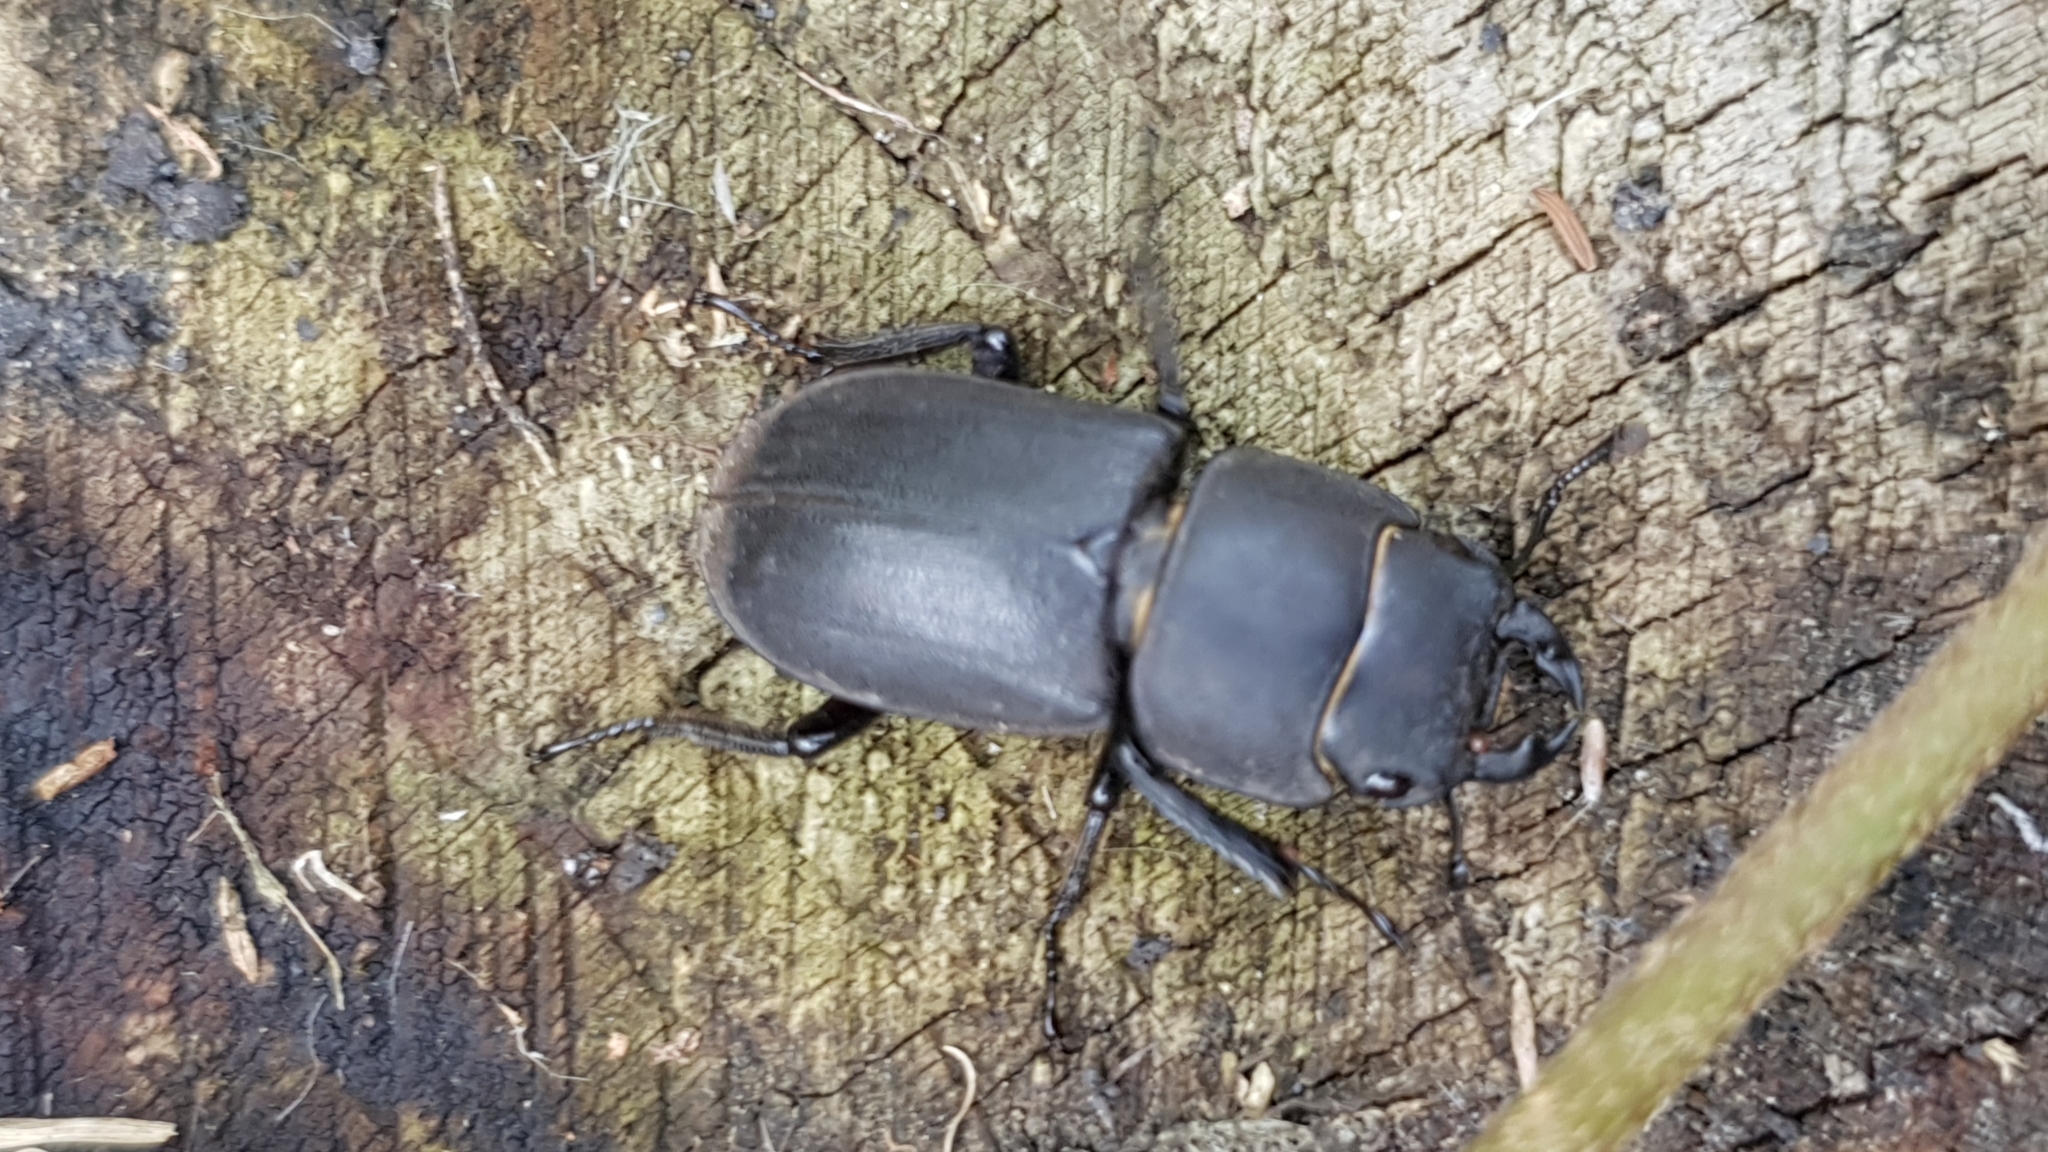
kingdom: Animalia
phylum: Arthropoda
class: Insecta
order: Coleoptera
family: Lucanidae
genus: Dorcus
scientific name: Dorcus parallelipipedus
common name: Lesser stag beetle
